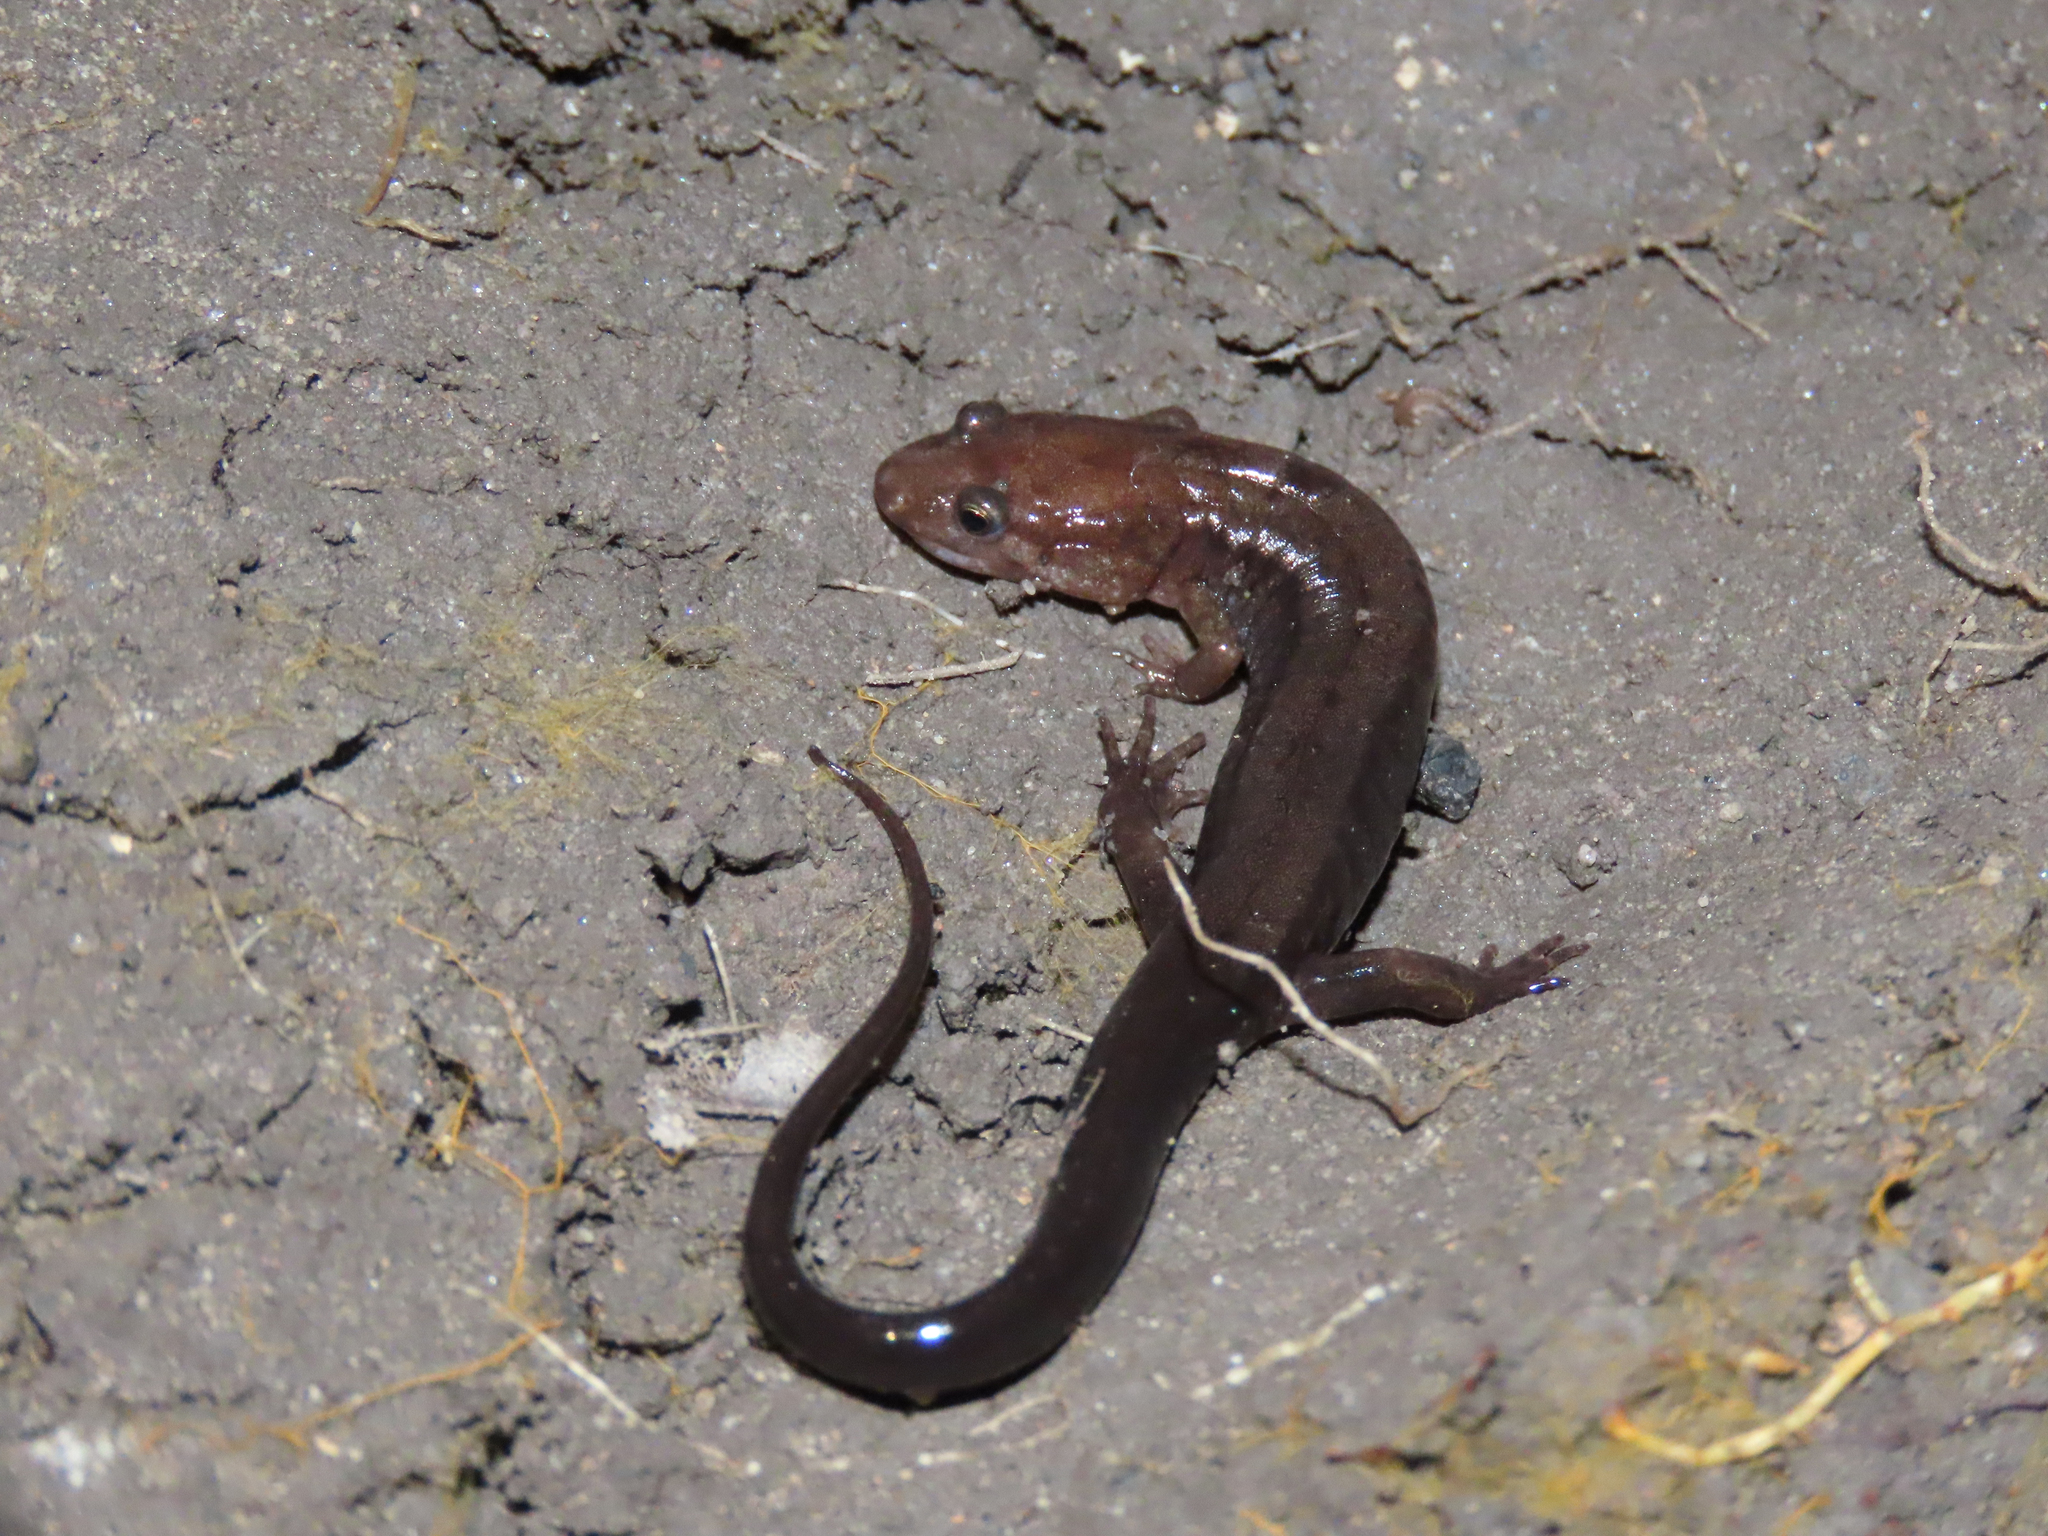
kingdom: Animalia
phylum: Chordata
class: Amphibia
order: Caudata
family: Plethodontidae
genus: Desmognathus
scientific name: Desmognathus ochrophaeus
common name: Allegheny mountain dusky salamander
